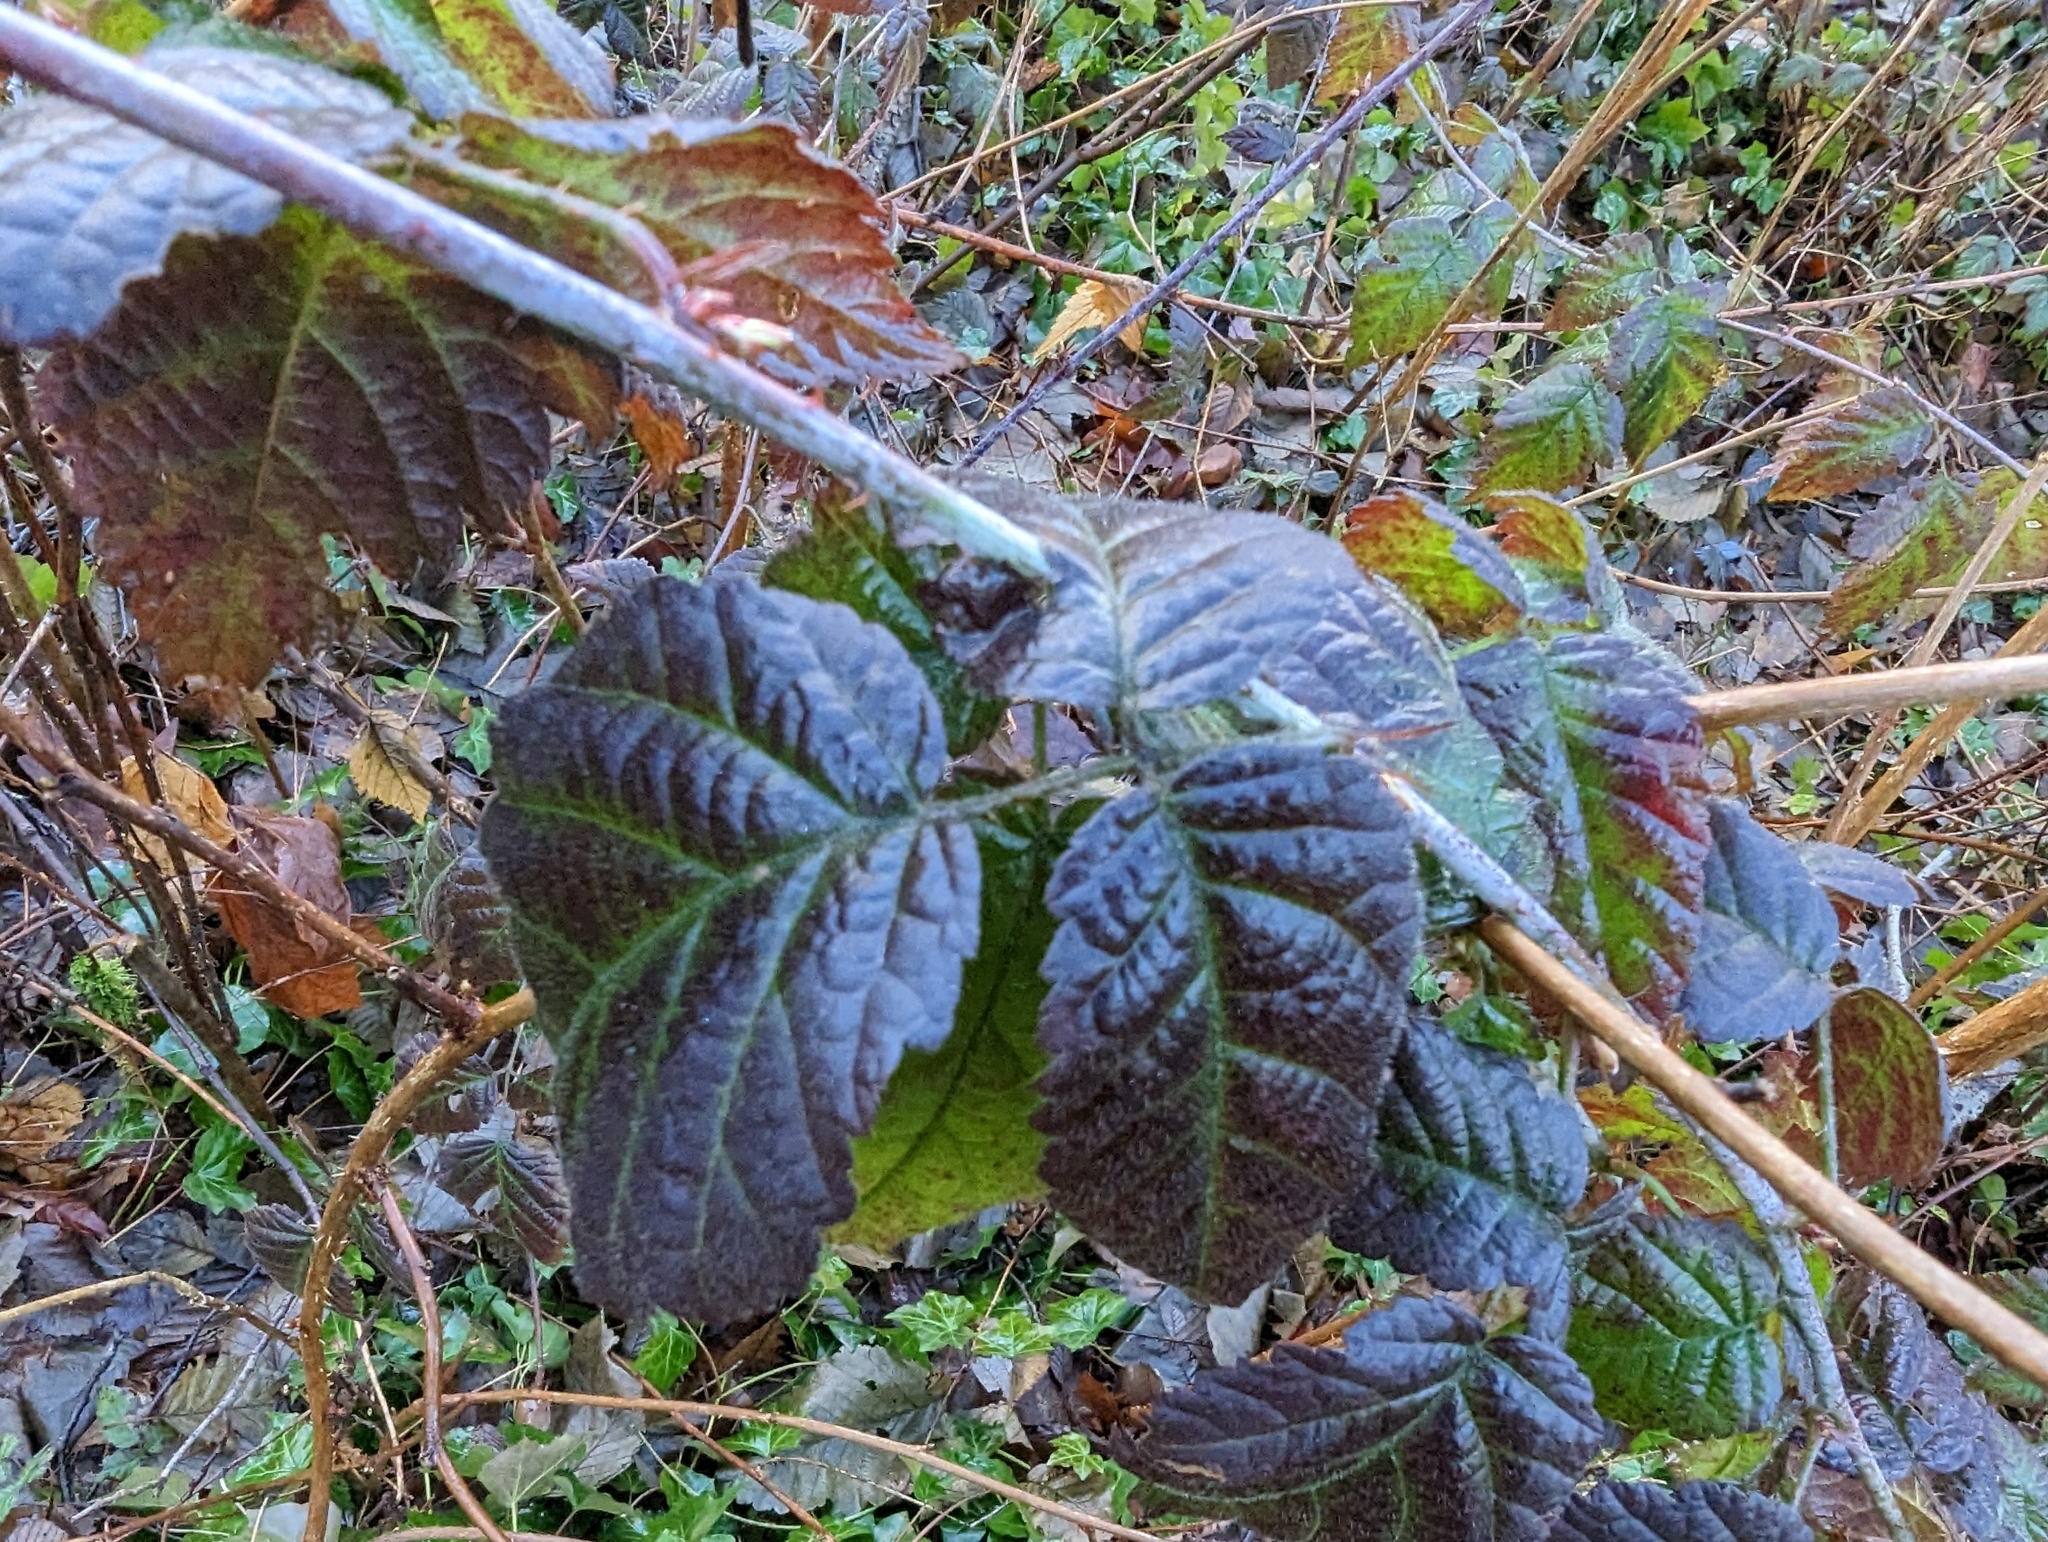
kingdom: Plantae
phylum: Tracheophyta
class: Magnoliopsida
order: Rosales
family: Rosaceae
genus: Rubus
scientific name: Rubus ursinus
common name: Pacific blackberry
